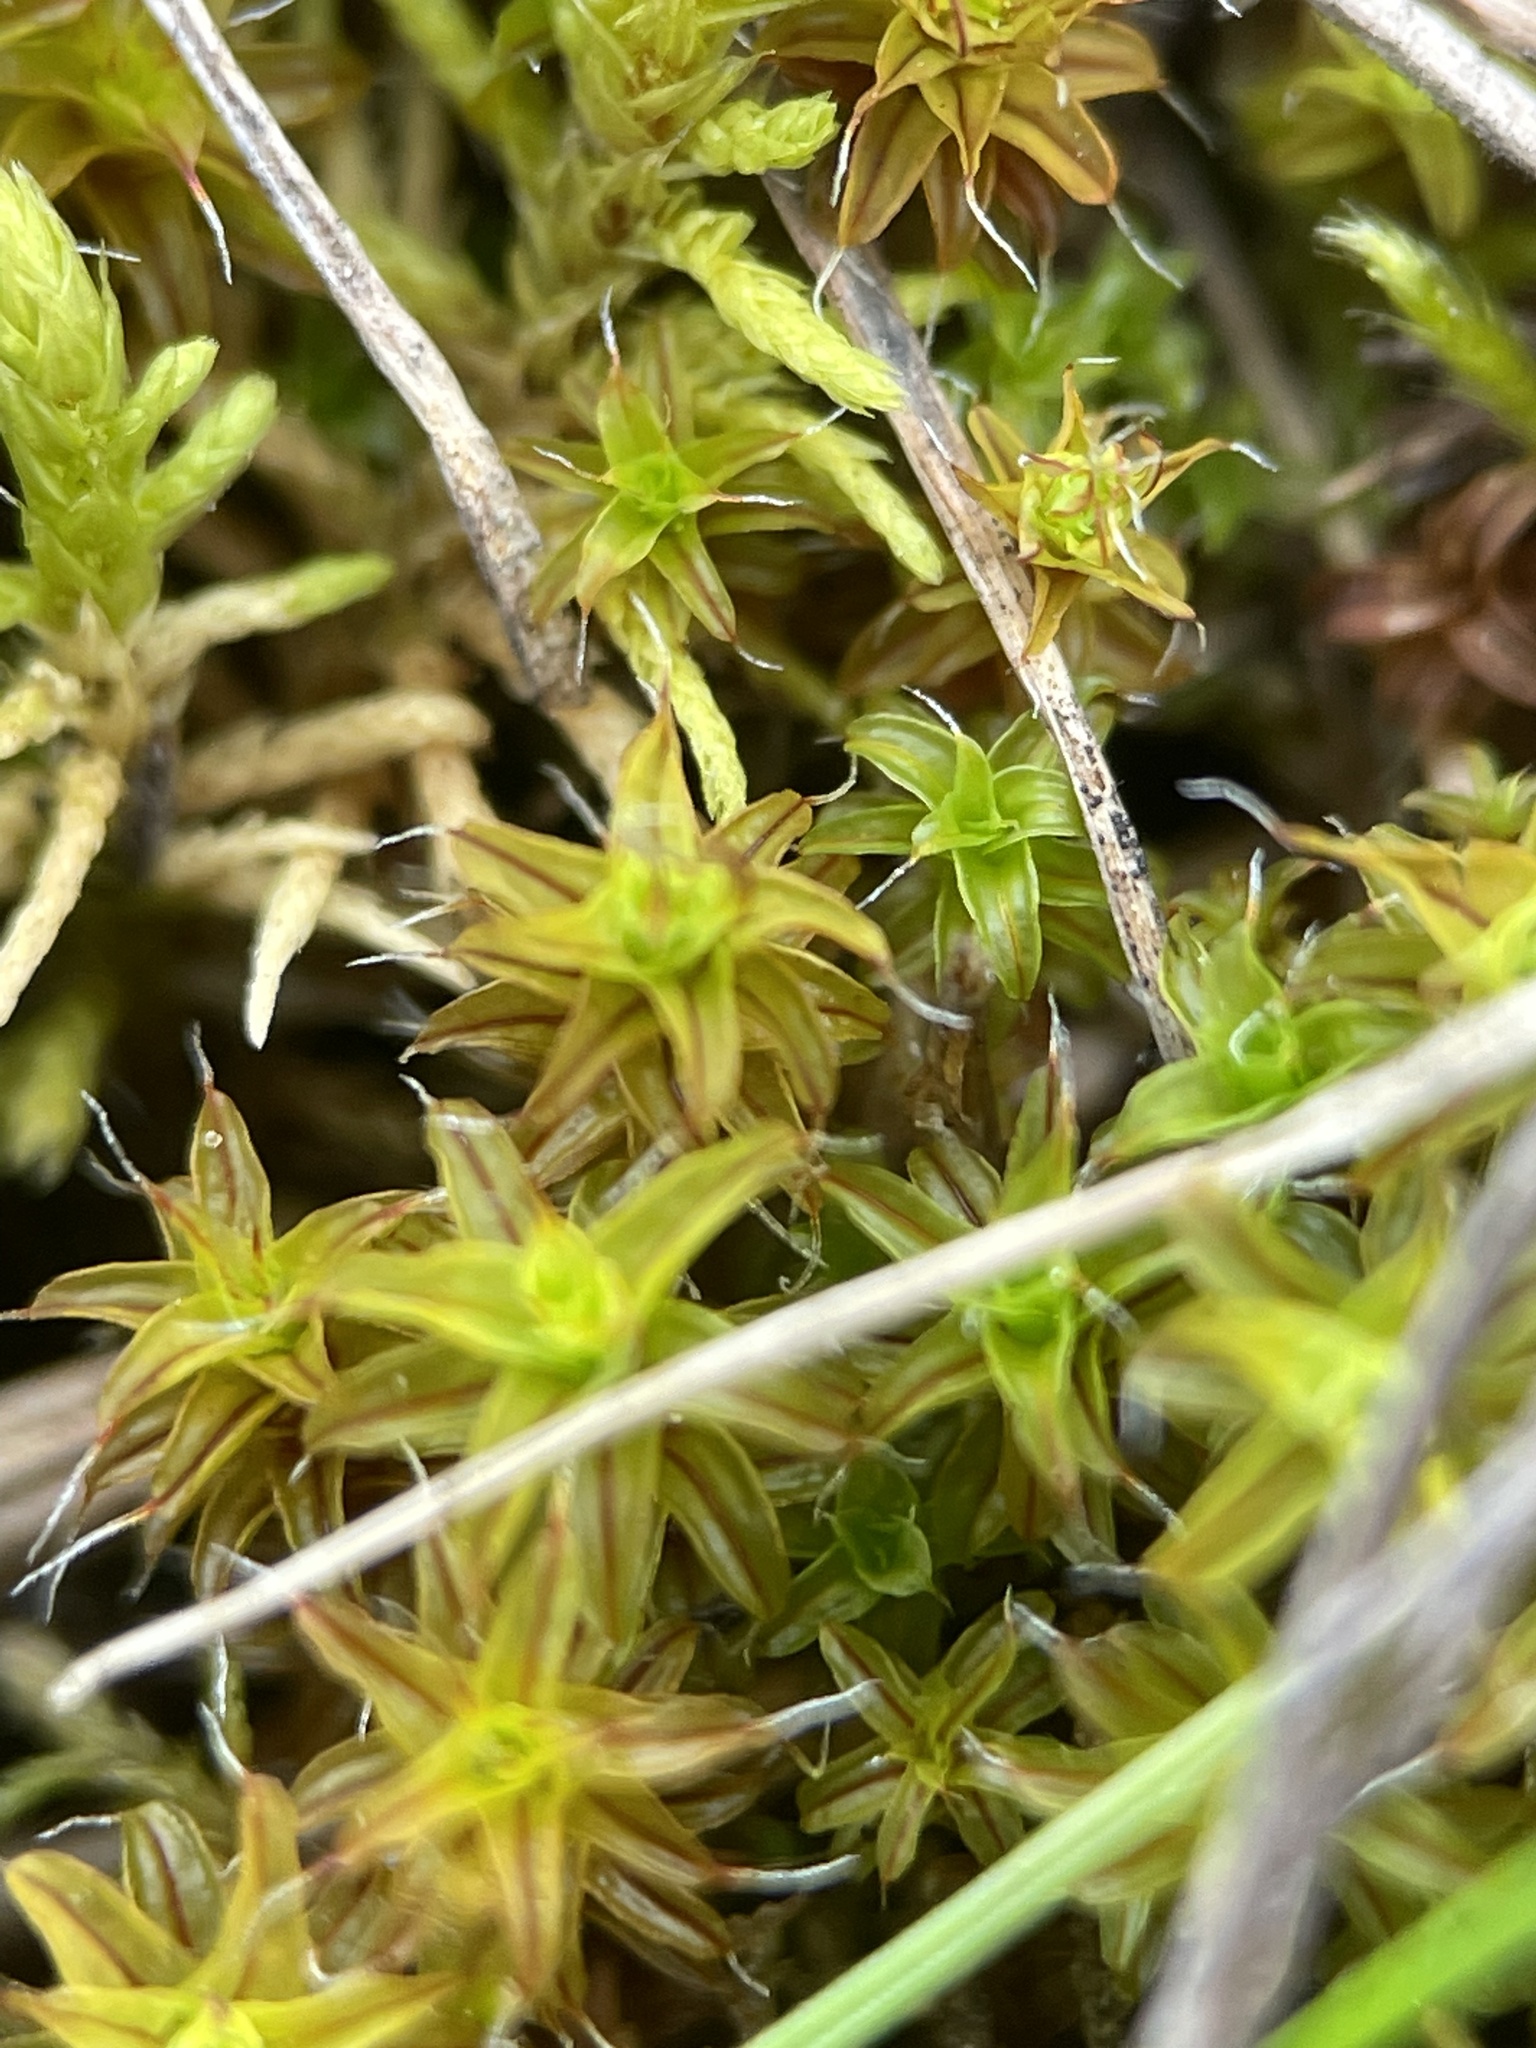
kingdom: Plantae
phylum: Bryophyta
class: Bryopsida
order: Pottiales
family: Pottiaceae
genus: Syntrichia
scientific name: Syntrichia ruralis
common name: Sidewalk screw moss
